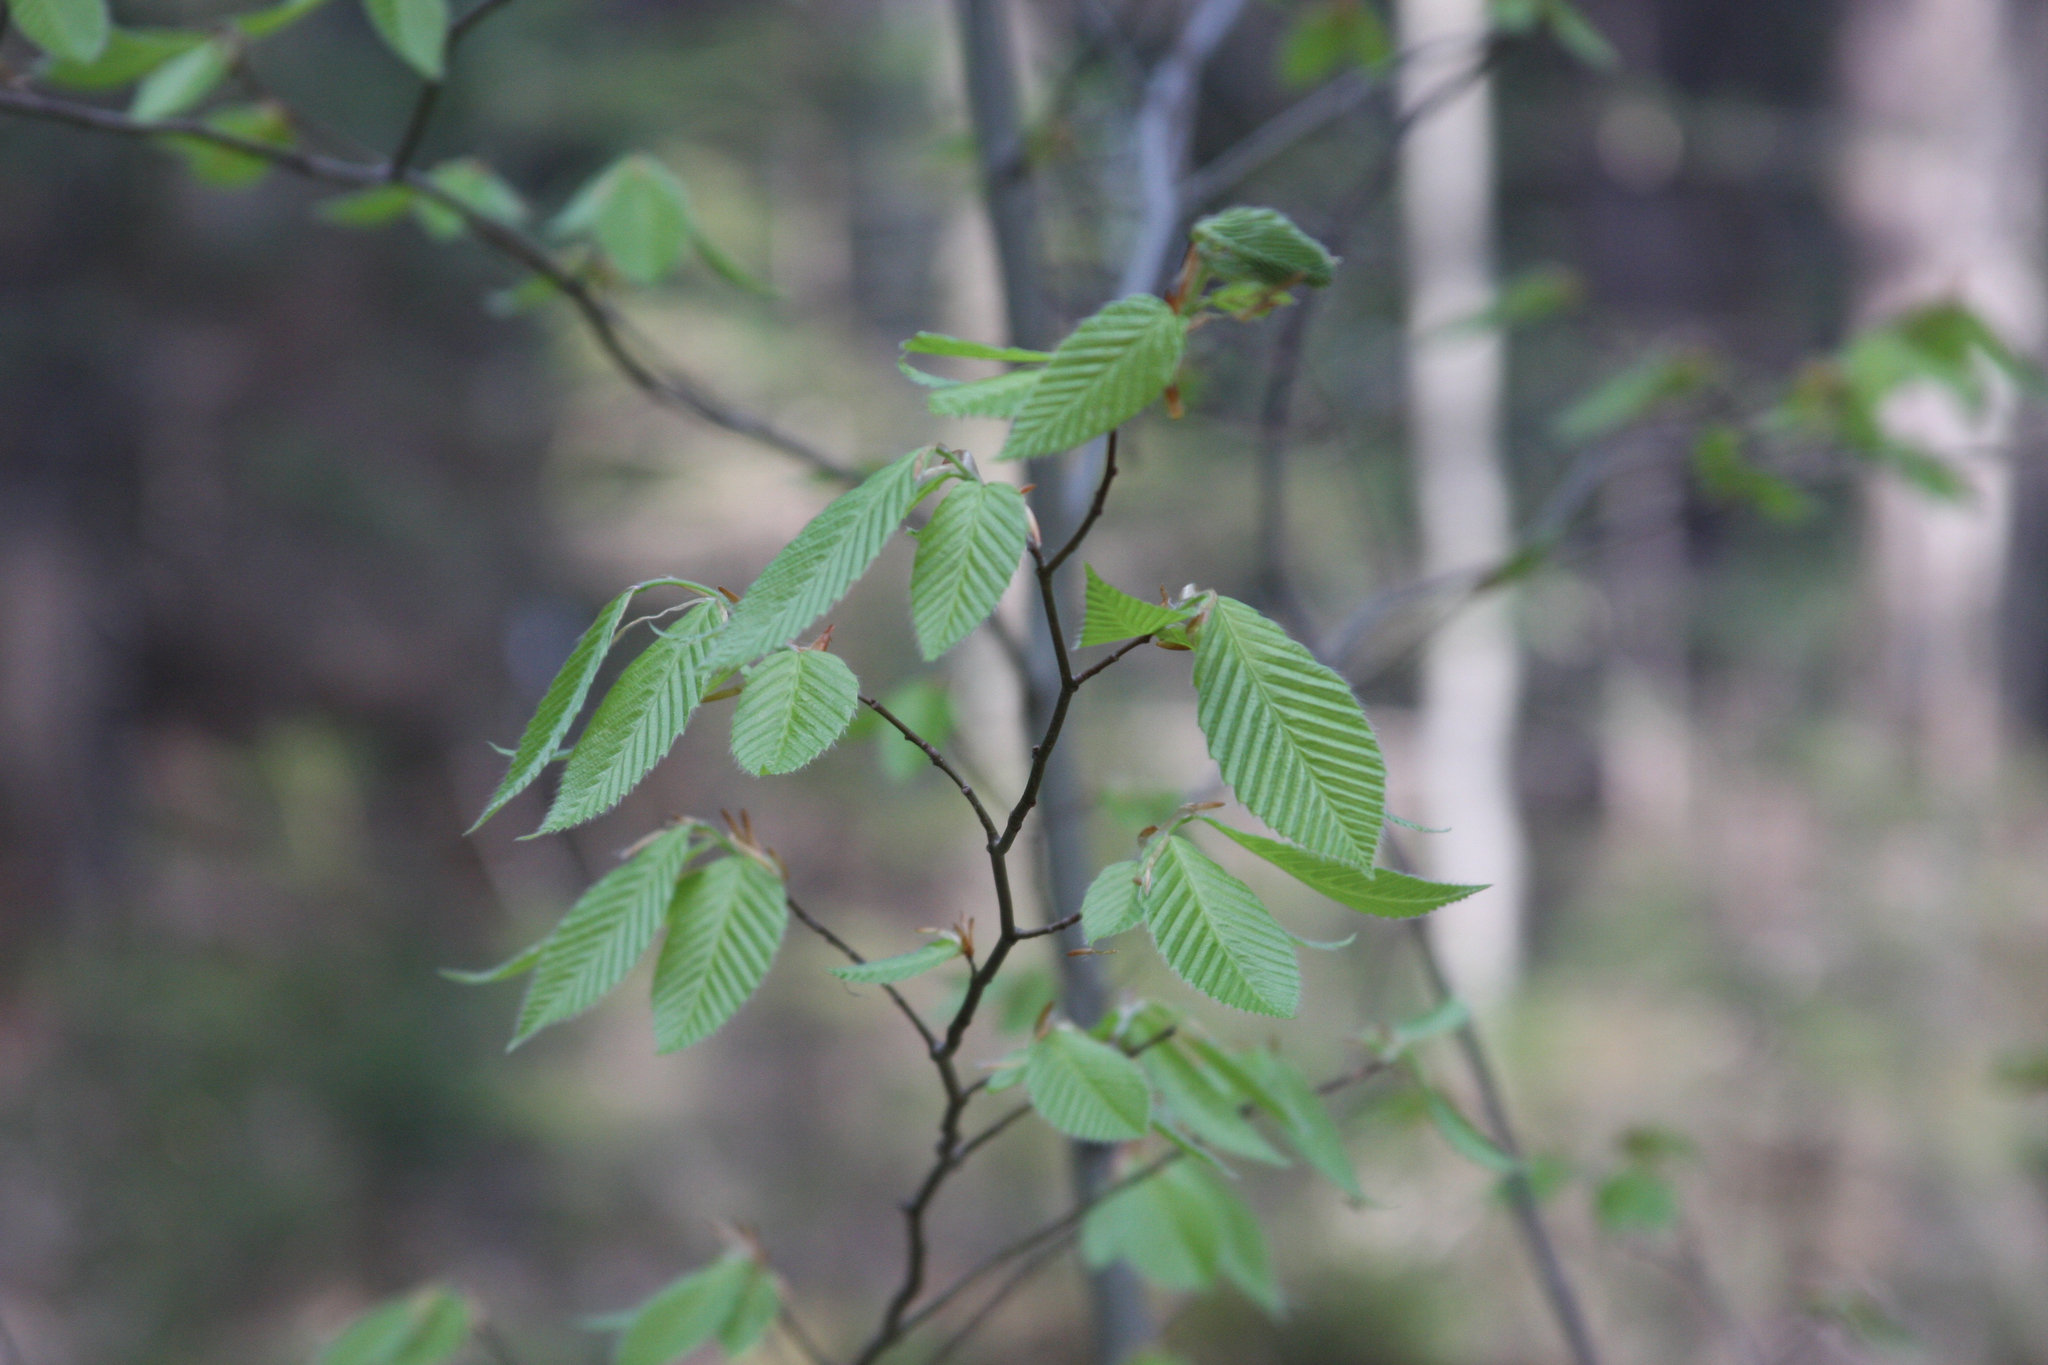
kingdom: Plantae
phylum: Tracheophyta
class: Magnoliopsida
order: Fagales
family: Fagaceae
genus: Fagus
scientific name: Fagus grandifolia
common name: American beech
